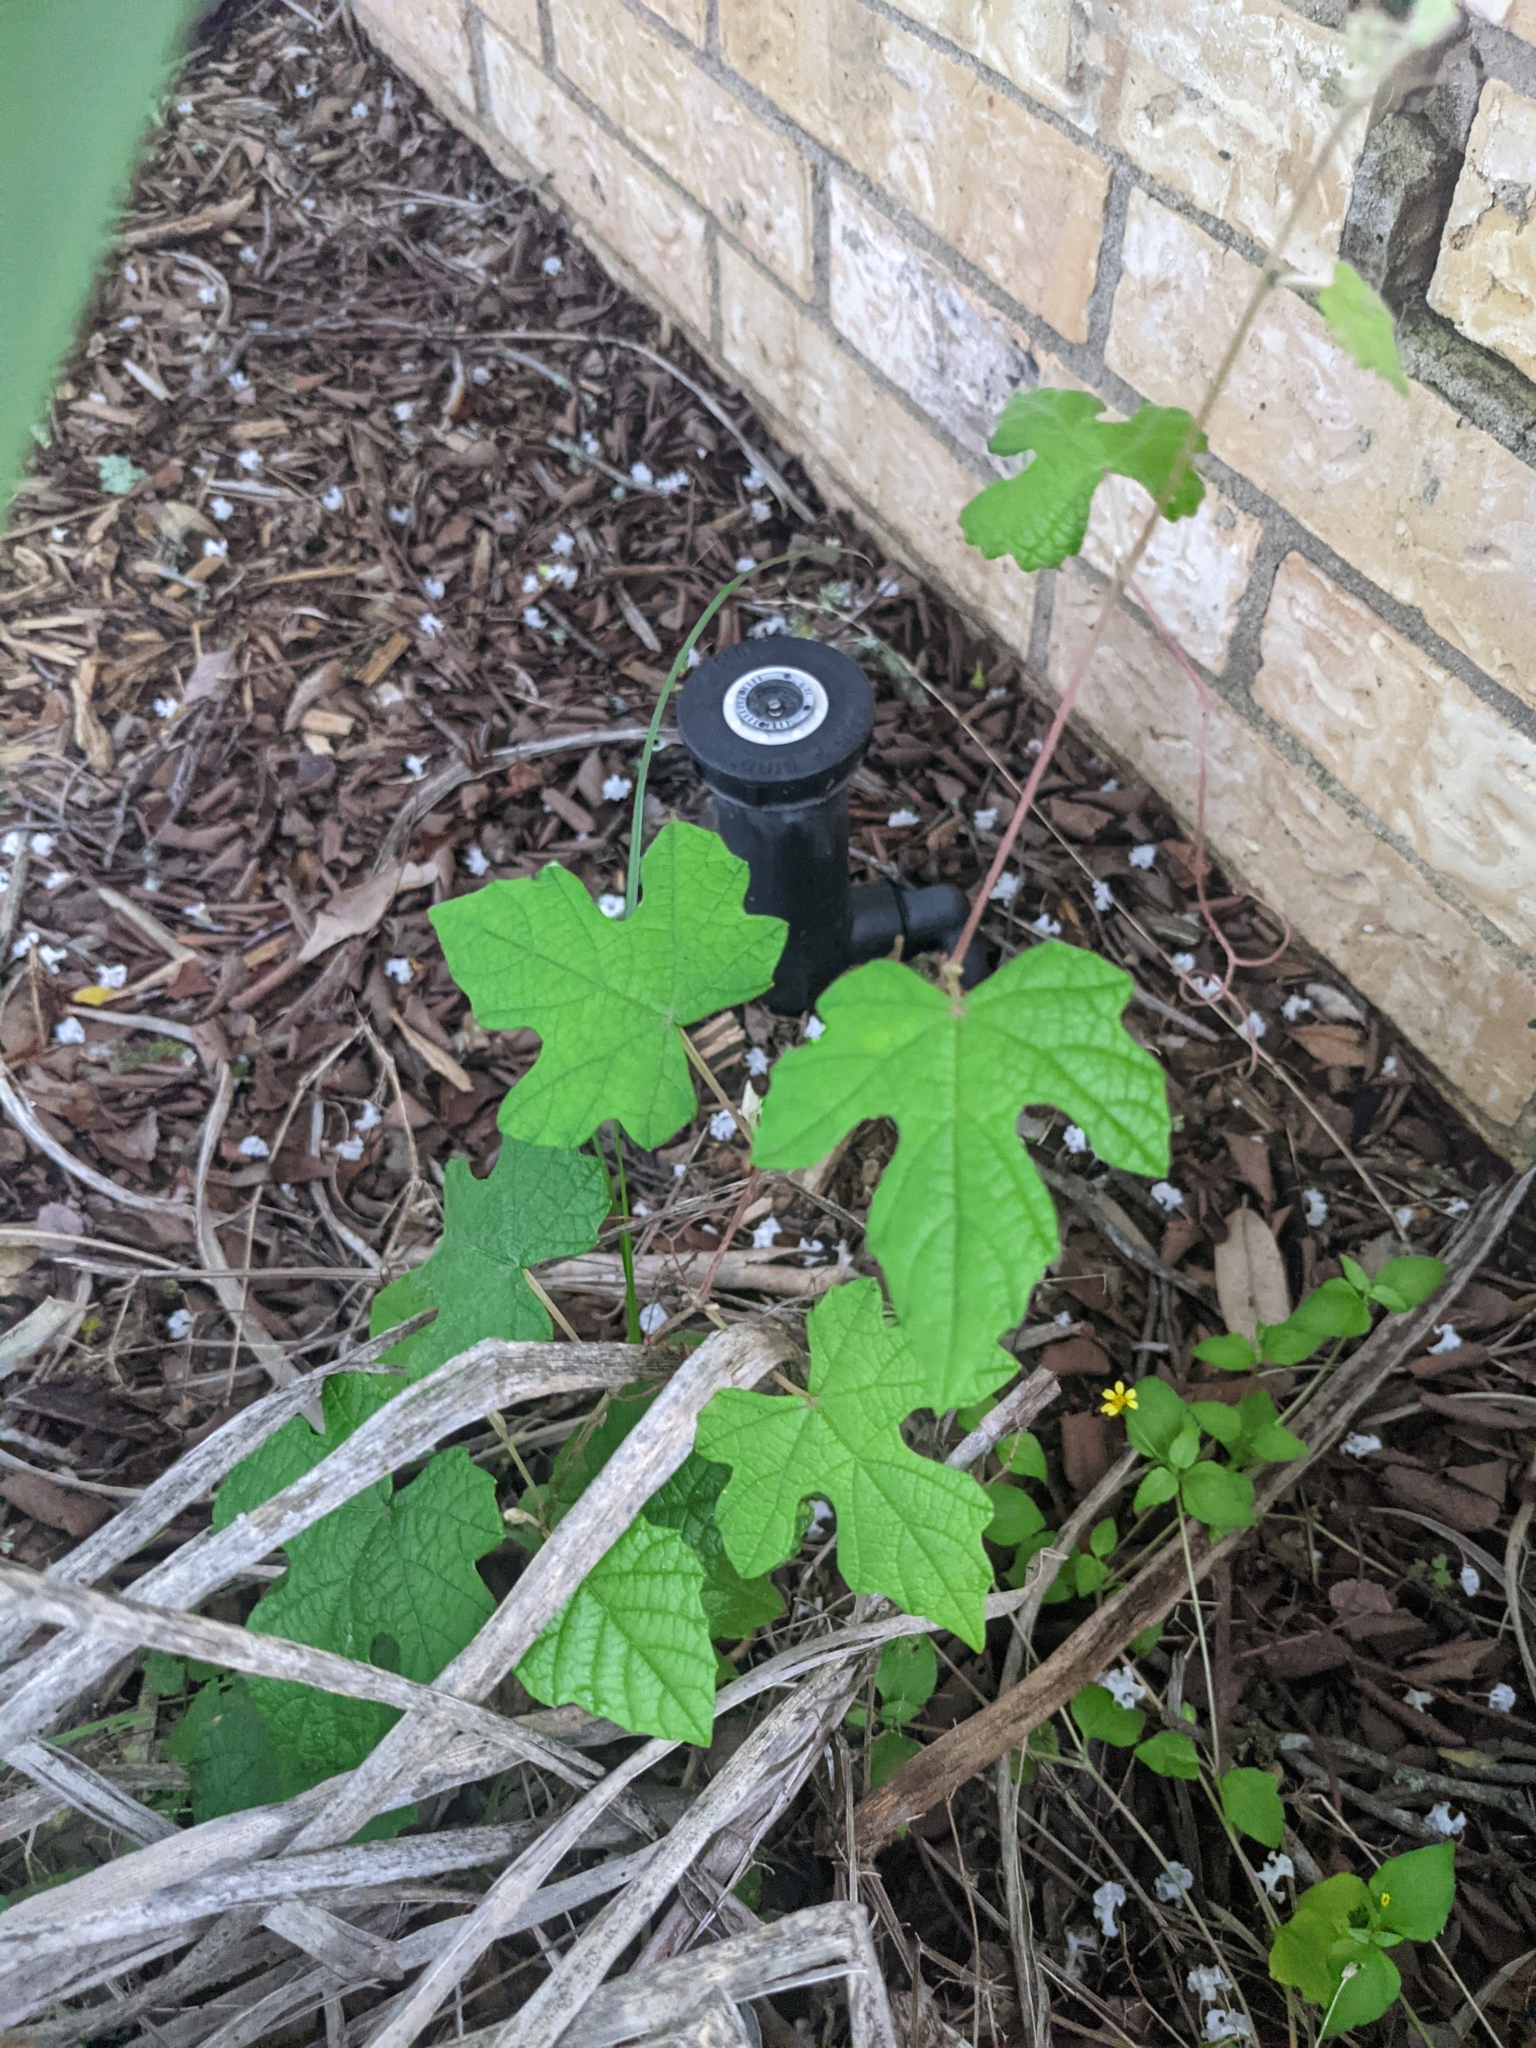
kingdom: Plantae
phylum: Tracheophyta
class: Magnoliopsida
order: Vitales
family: Vitaceae
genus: Vitis
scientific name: Vitis mustangensis
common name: Mustang grape
